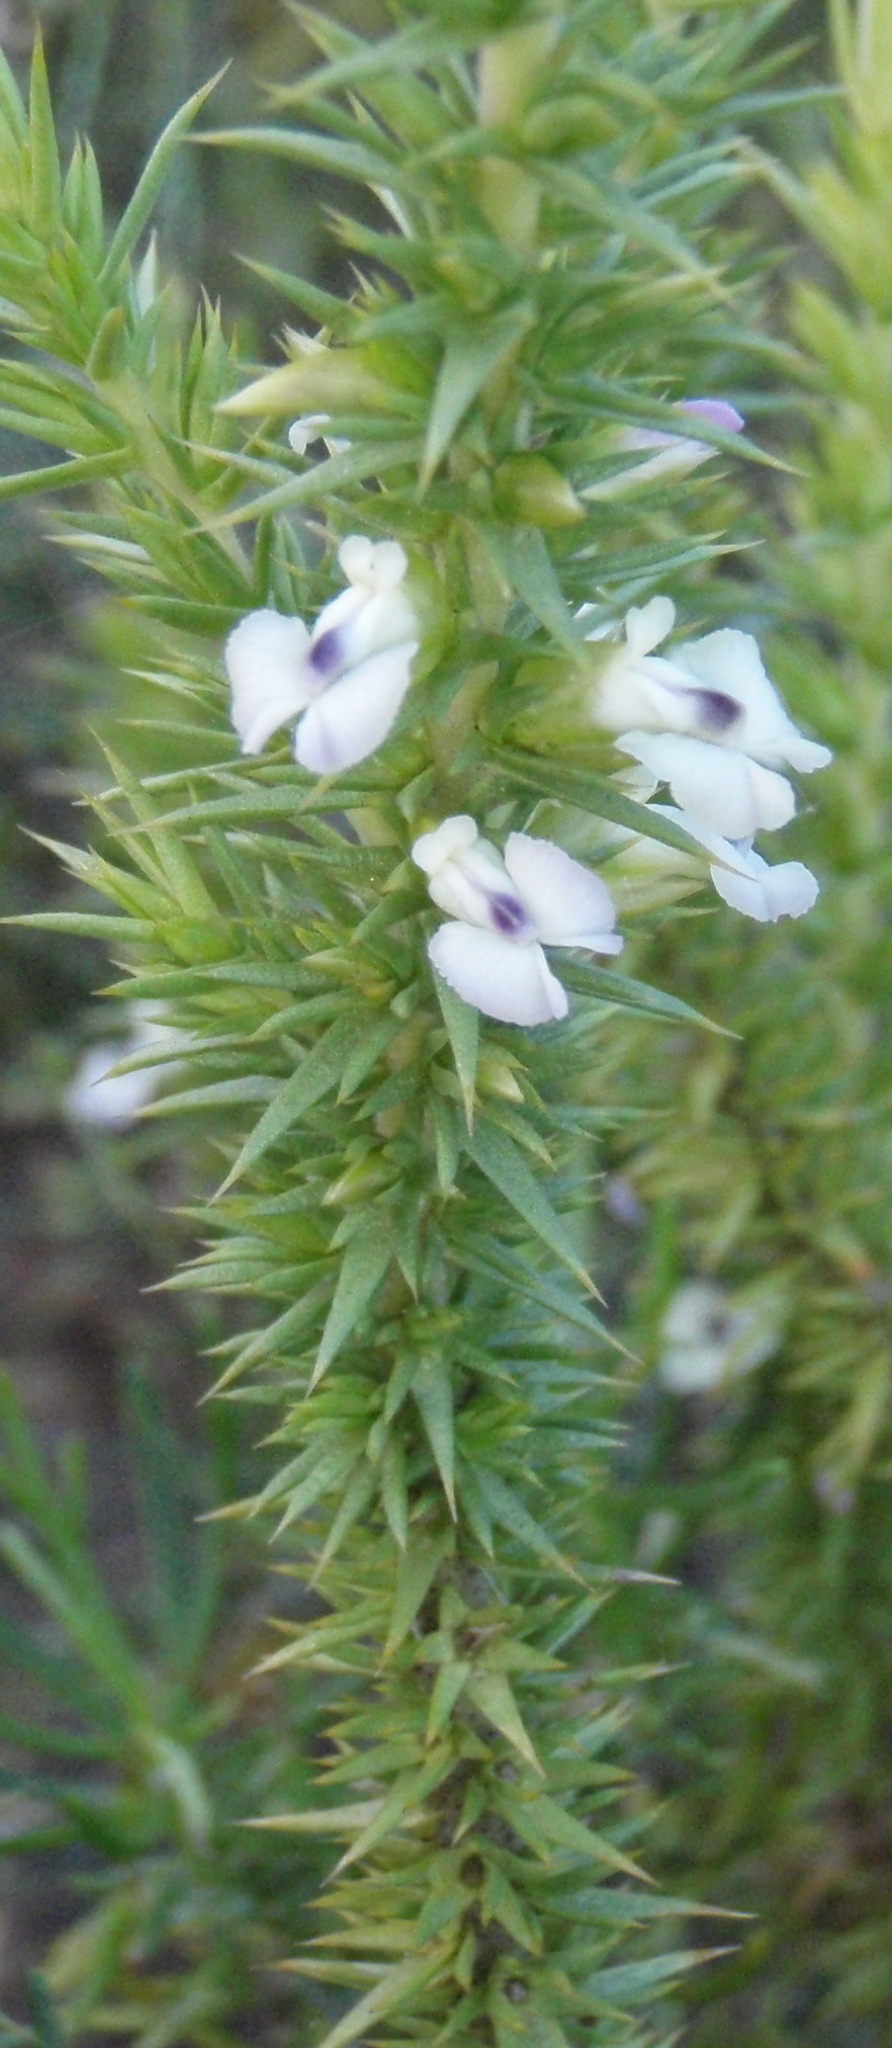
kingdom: Plantae
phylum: Tracheophyta
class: Magnoliopsida
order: Fabales
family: Polygalaceae
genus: Muraltia
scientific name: Muraltia ericifolia
